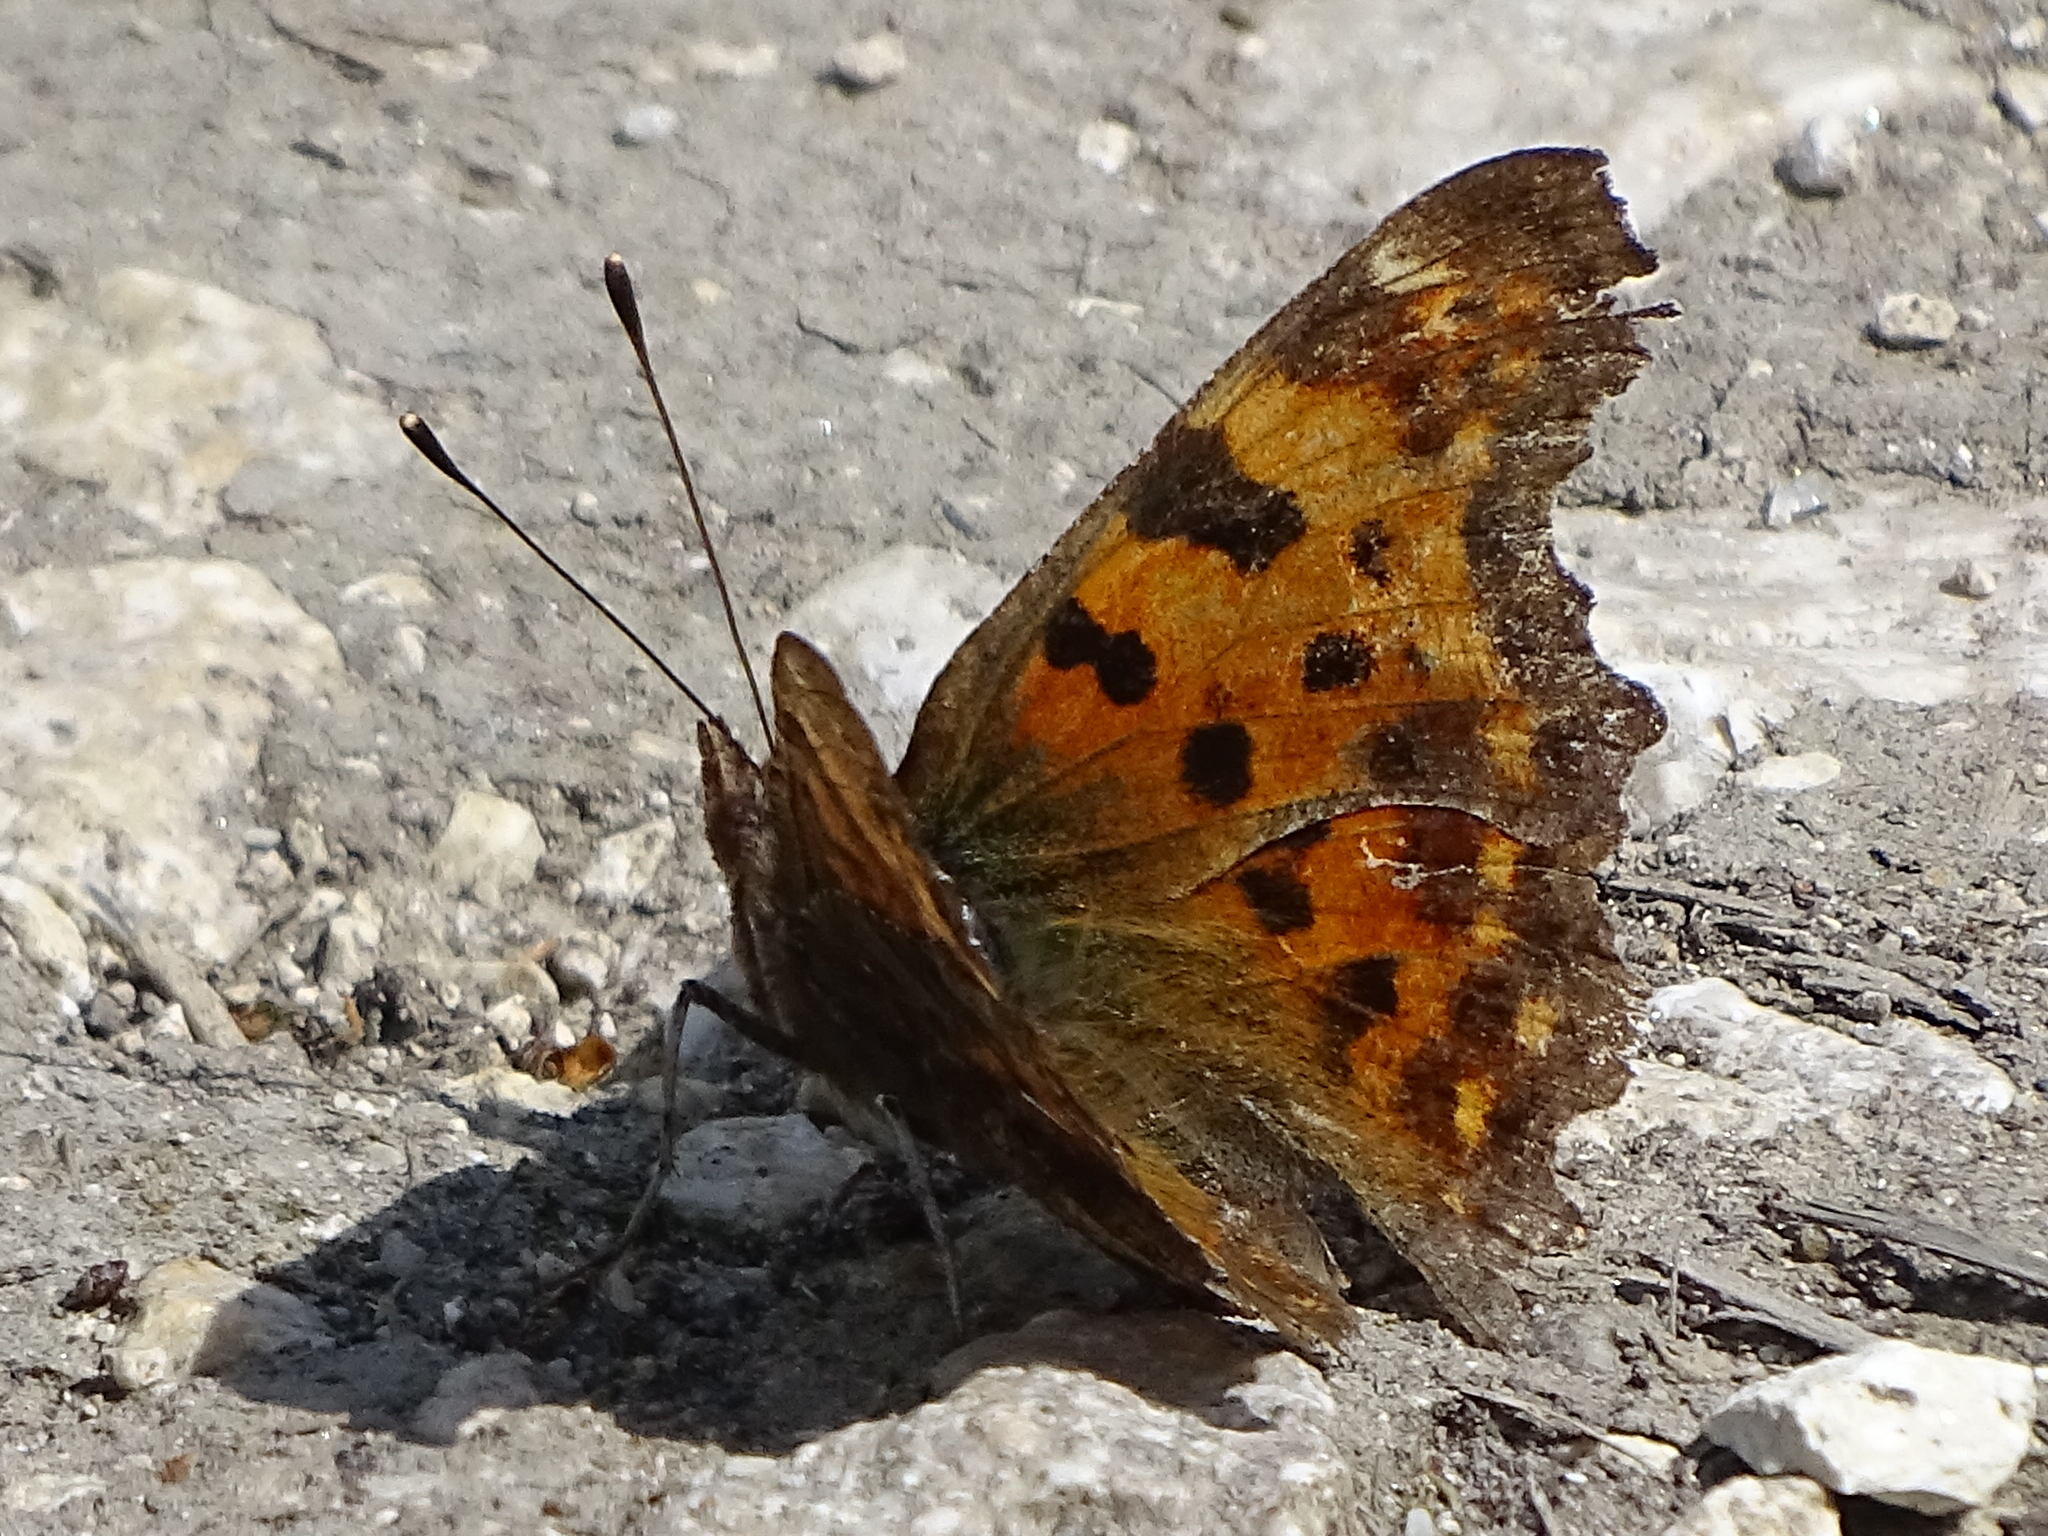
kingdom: Animalia
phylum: Arthropoda
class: Insecta
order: Lepidoptera
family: Nymphalidae
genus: Polygonia
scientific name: Polygonia c-album
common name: Comma
